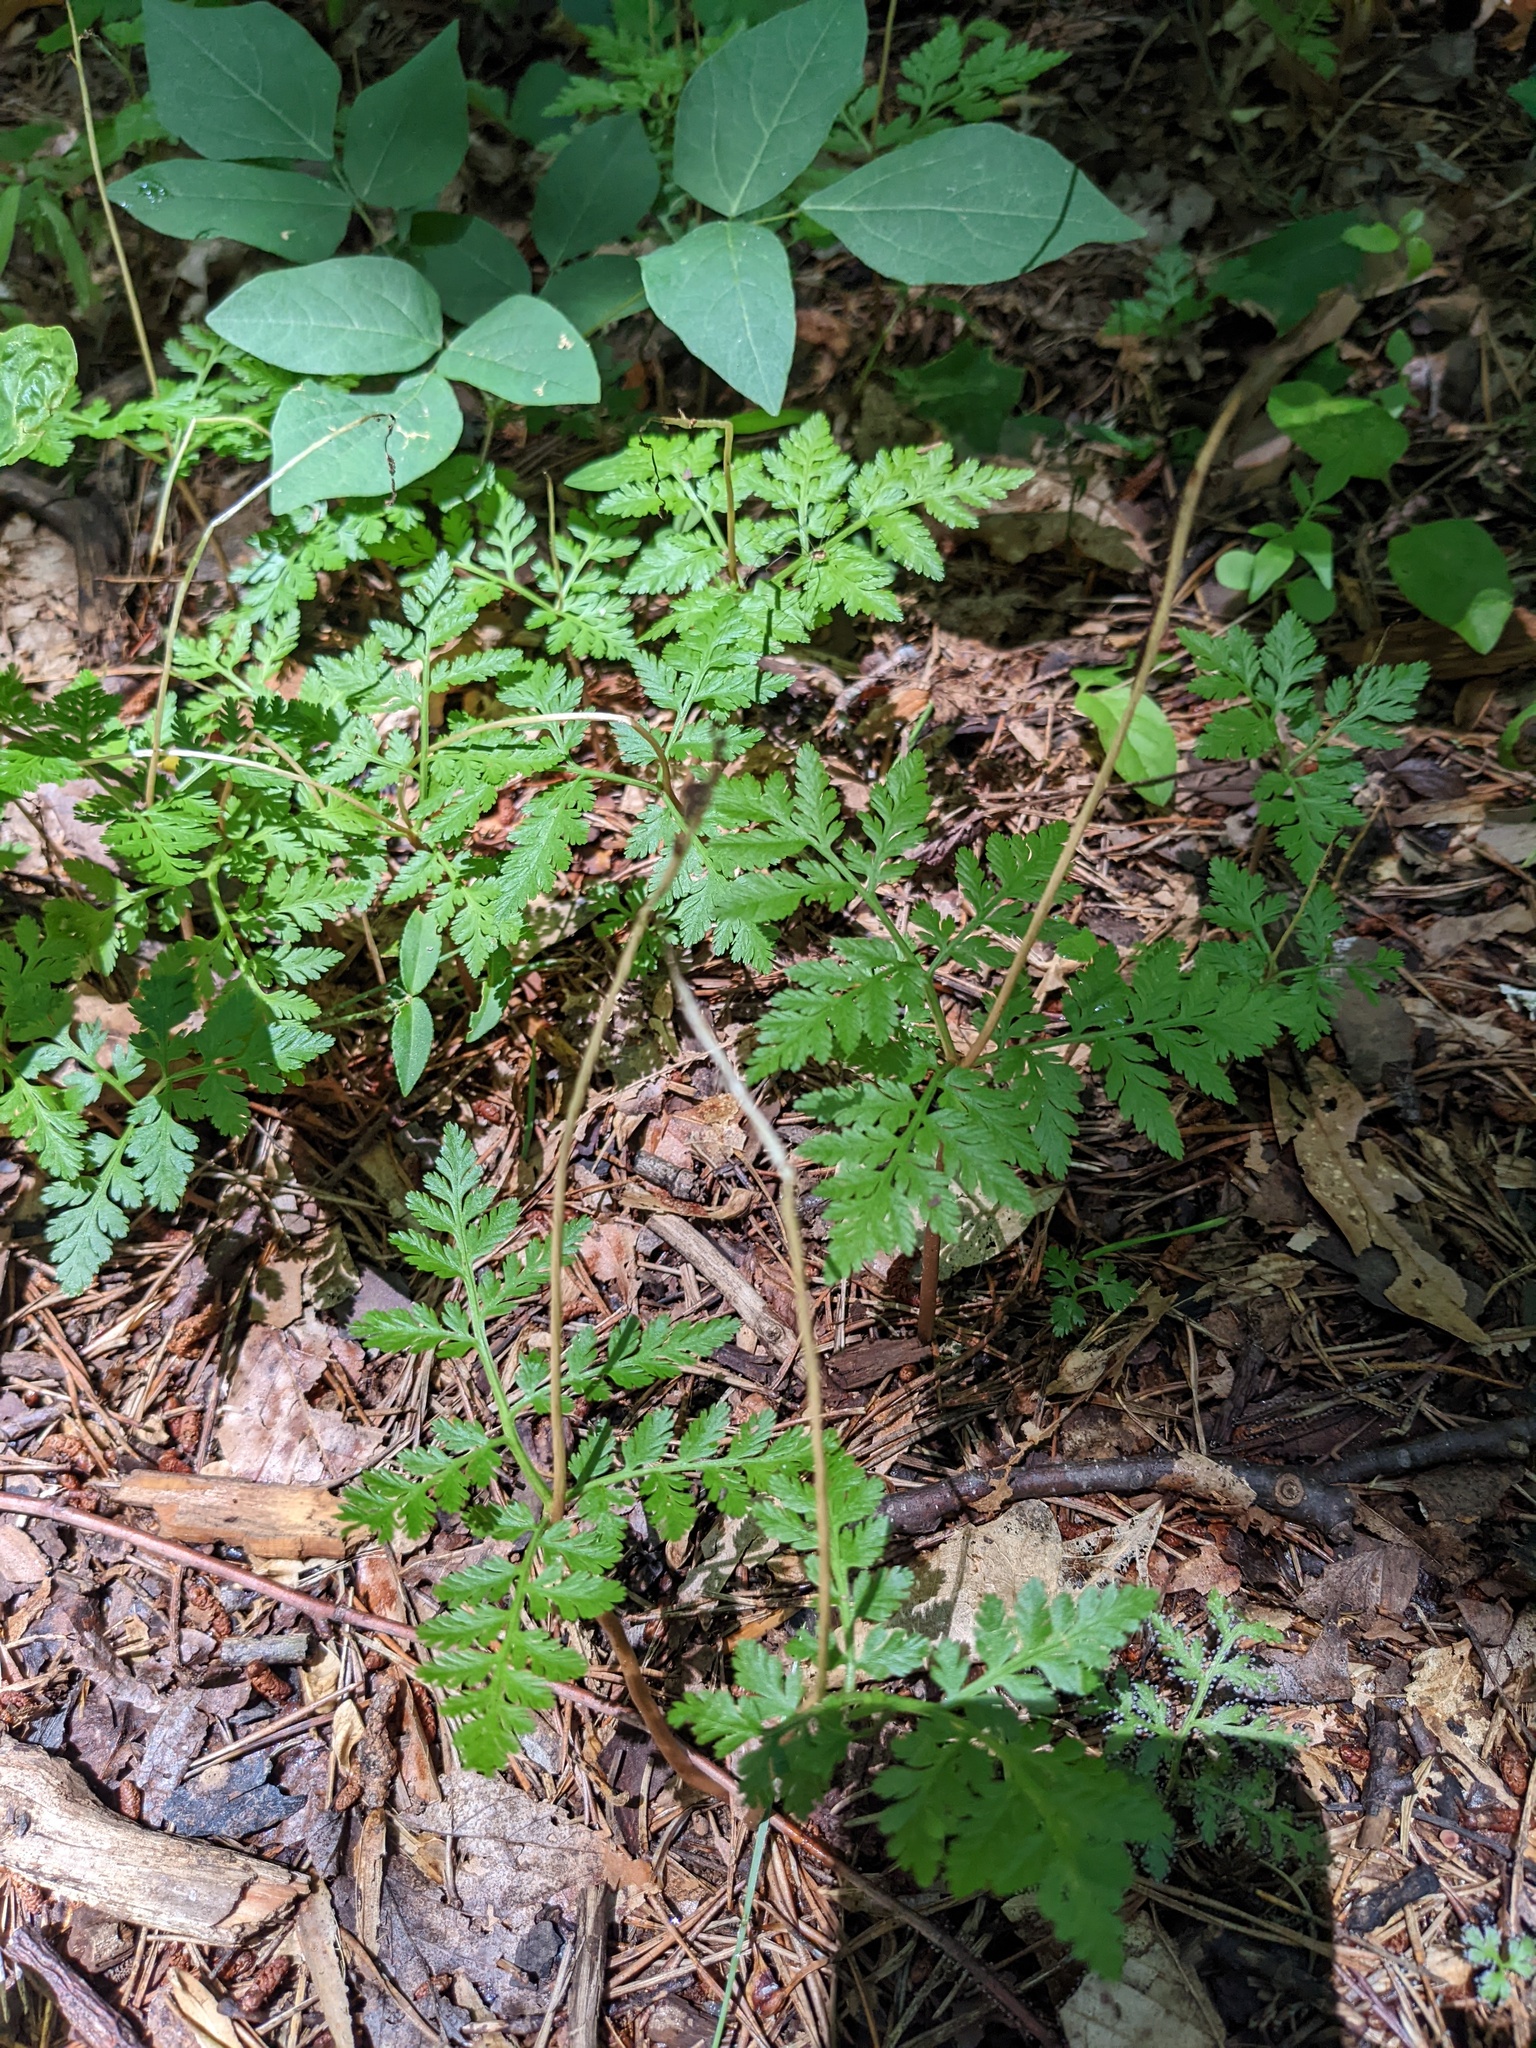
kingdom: Plantae
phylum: Tracheophyta
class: Polypodiopsida
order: Ophioglossales
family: Ophioglossaceae
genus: Botrypus
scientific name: Botrypus virginianus
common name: Common grapefern
